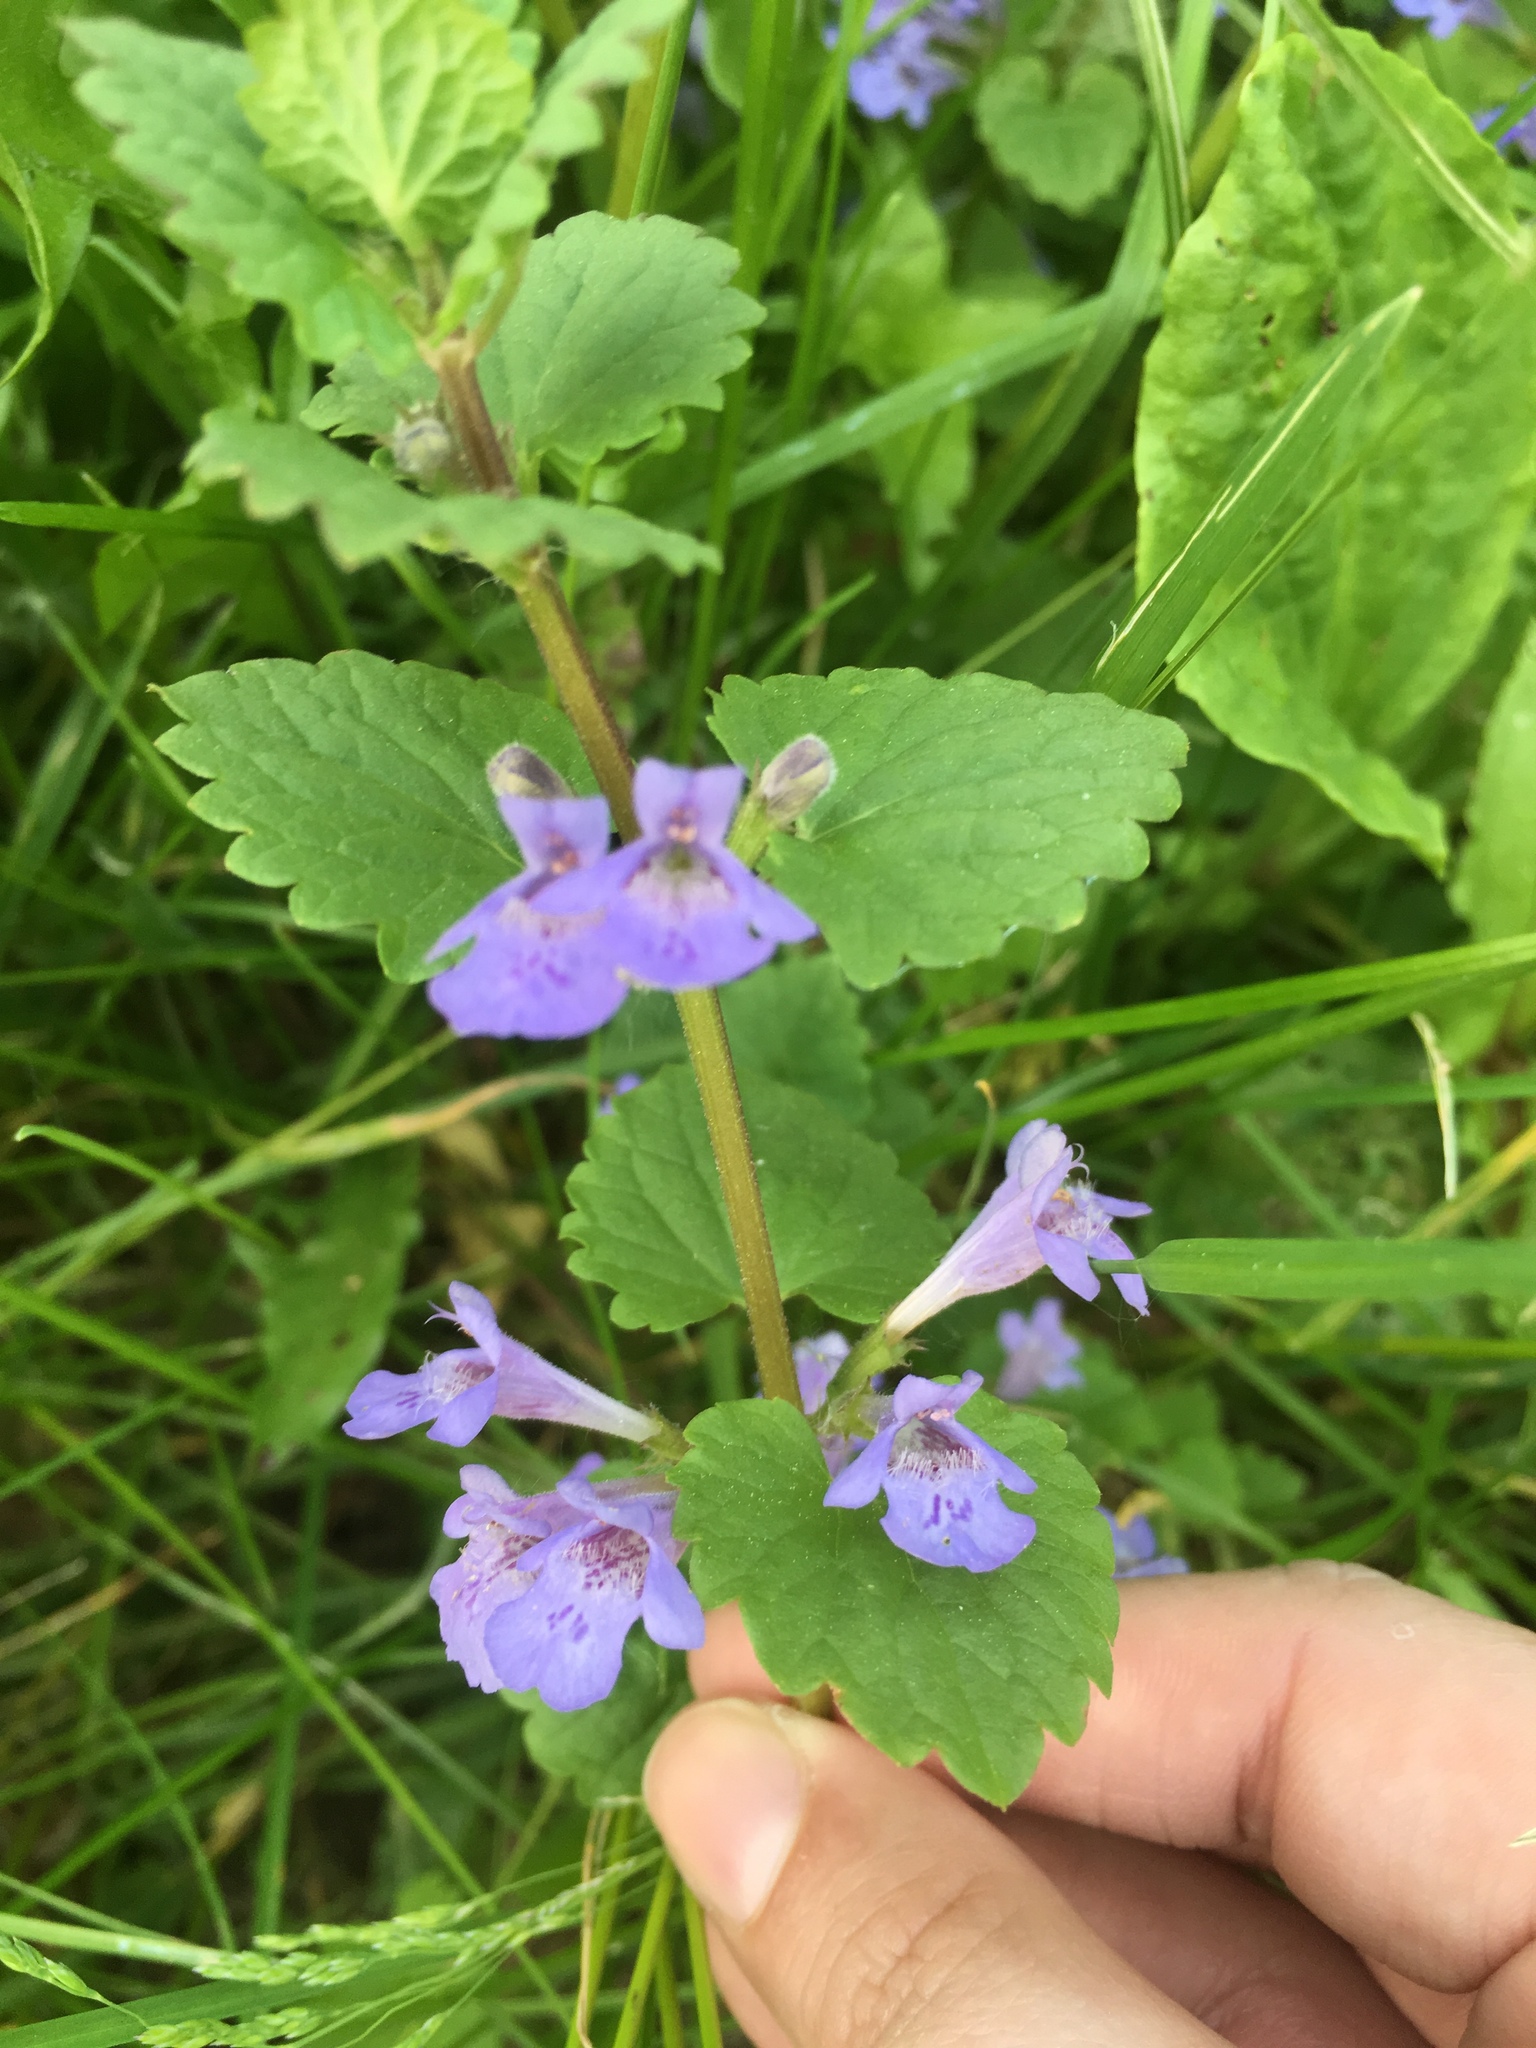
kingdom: Plantae
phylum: Tracheophyta
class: Magnoliopsida
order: Lamiales
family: Lamiaceae
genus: Glechoma
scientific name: Glechoma hederacea
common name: Ground ivy
